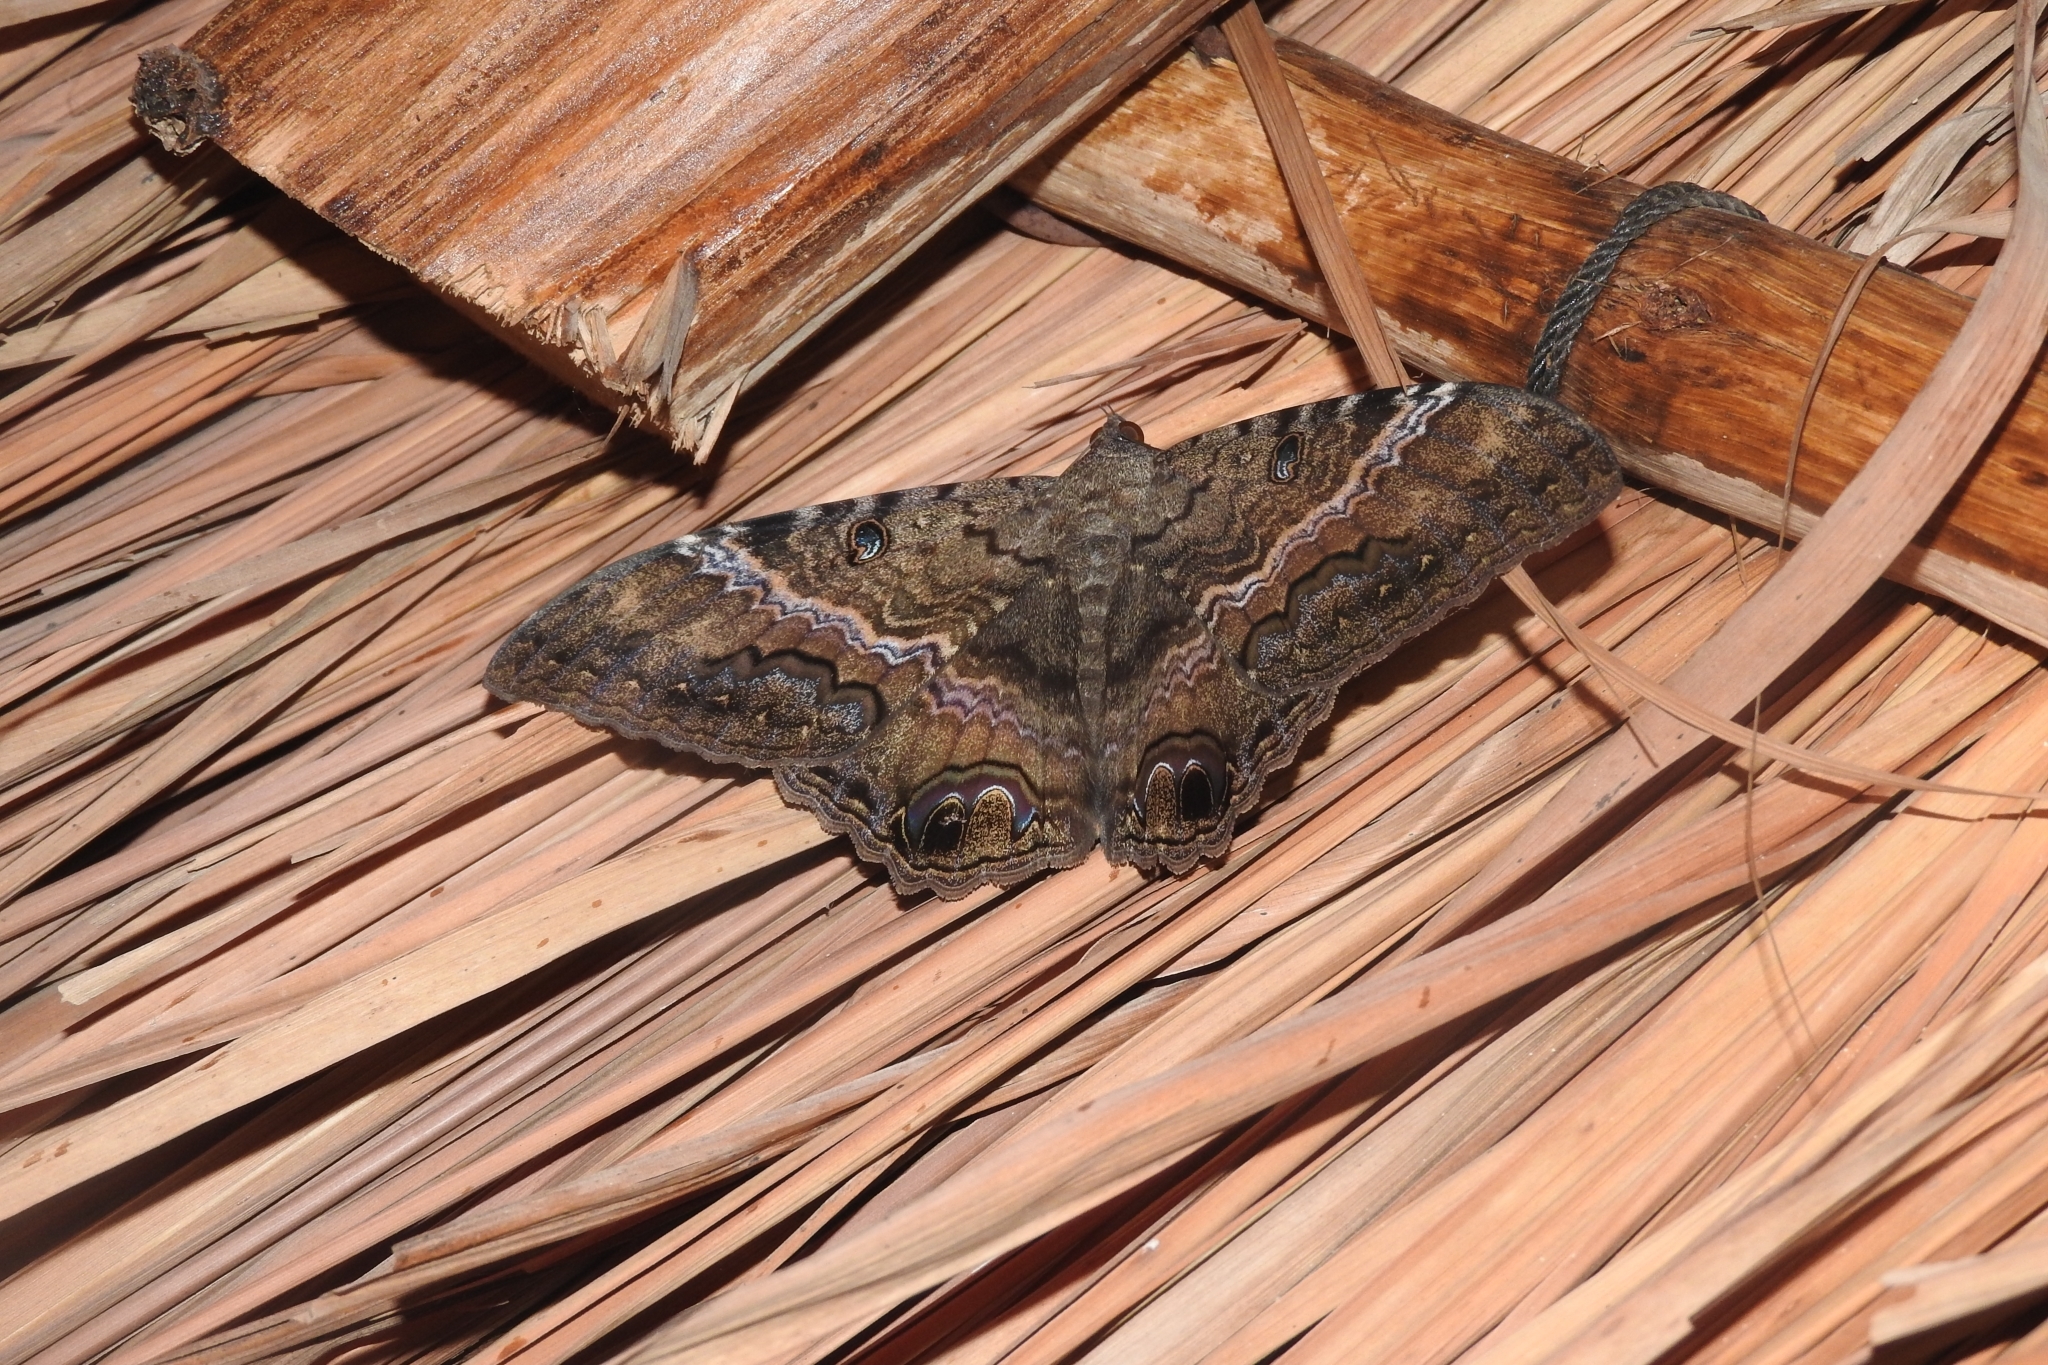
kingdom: Animalia
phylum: Arthropoda
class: Insecta
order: Lepidoptera
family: Erebidae
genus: Ascalapha
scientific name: Ascalapha odorata
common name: Black witch
